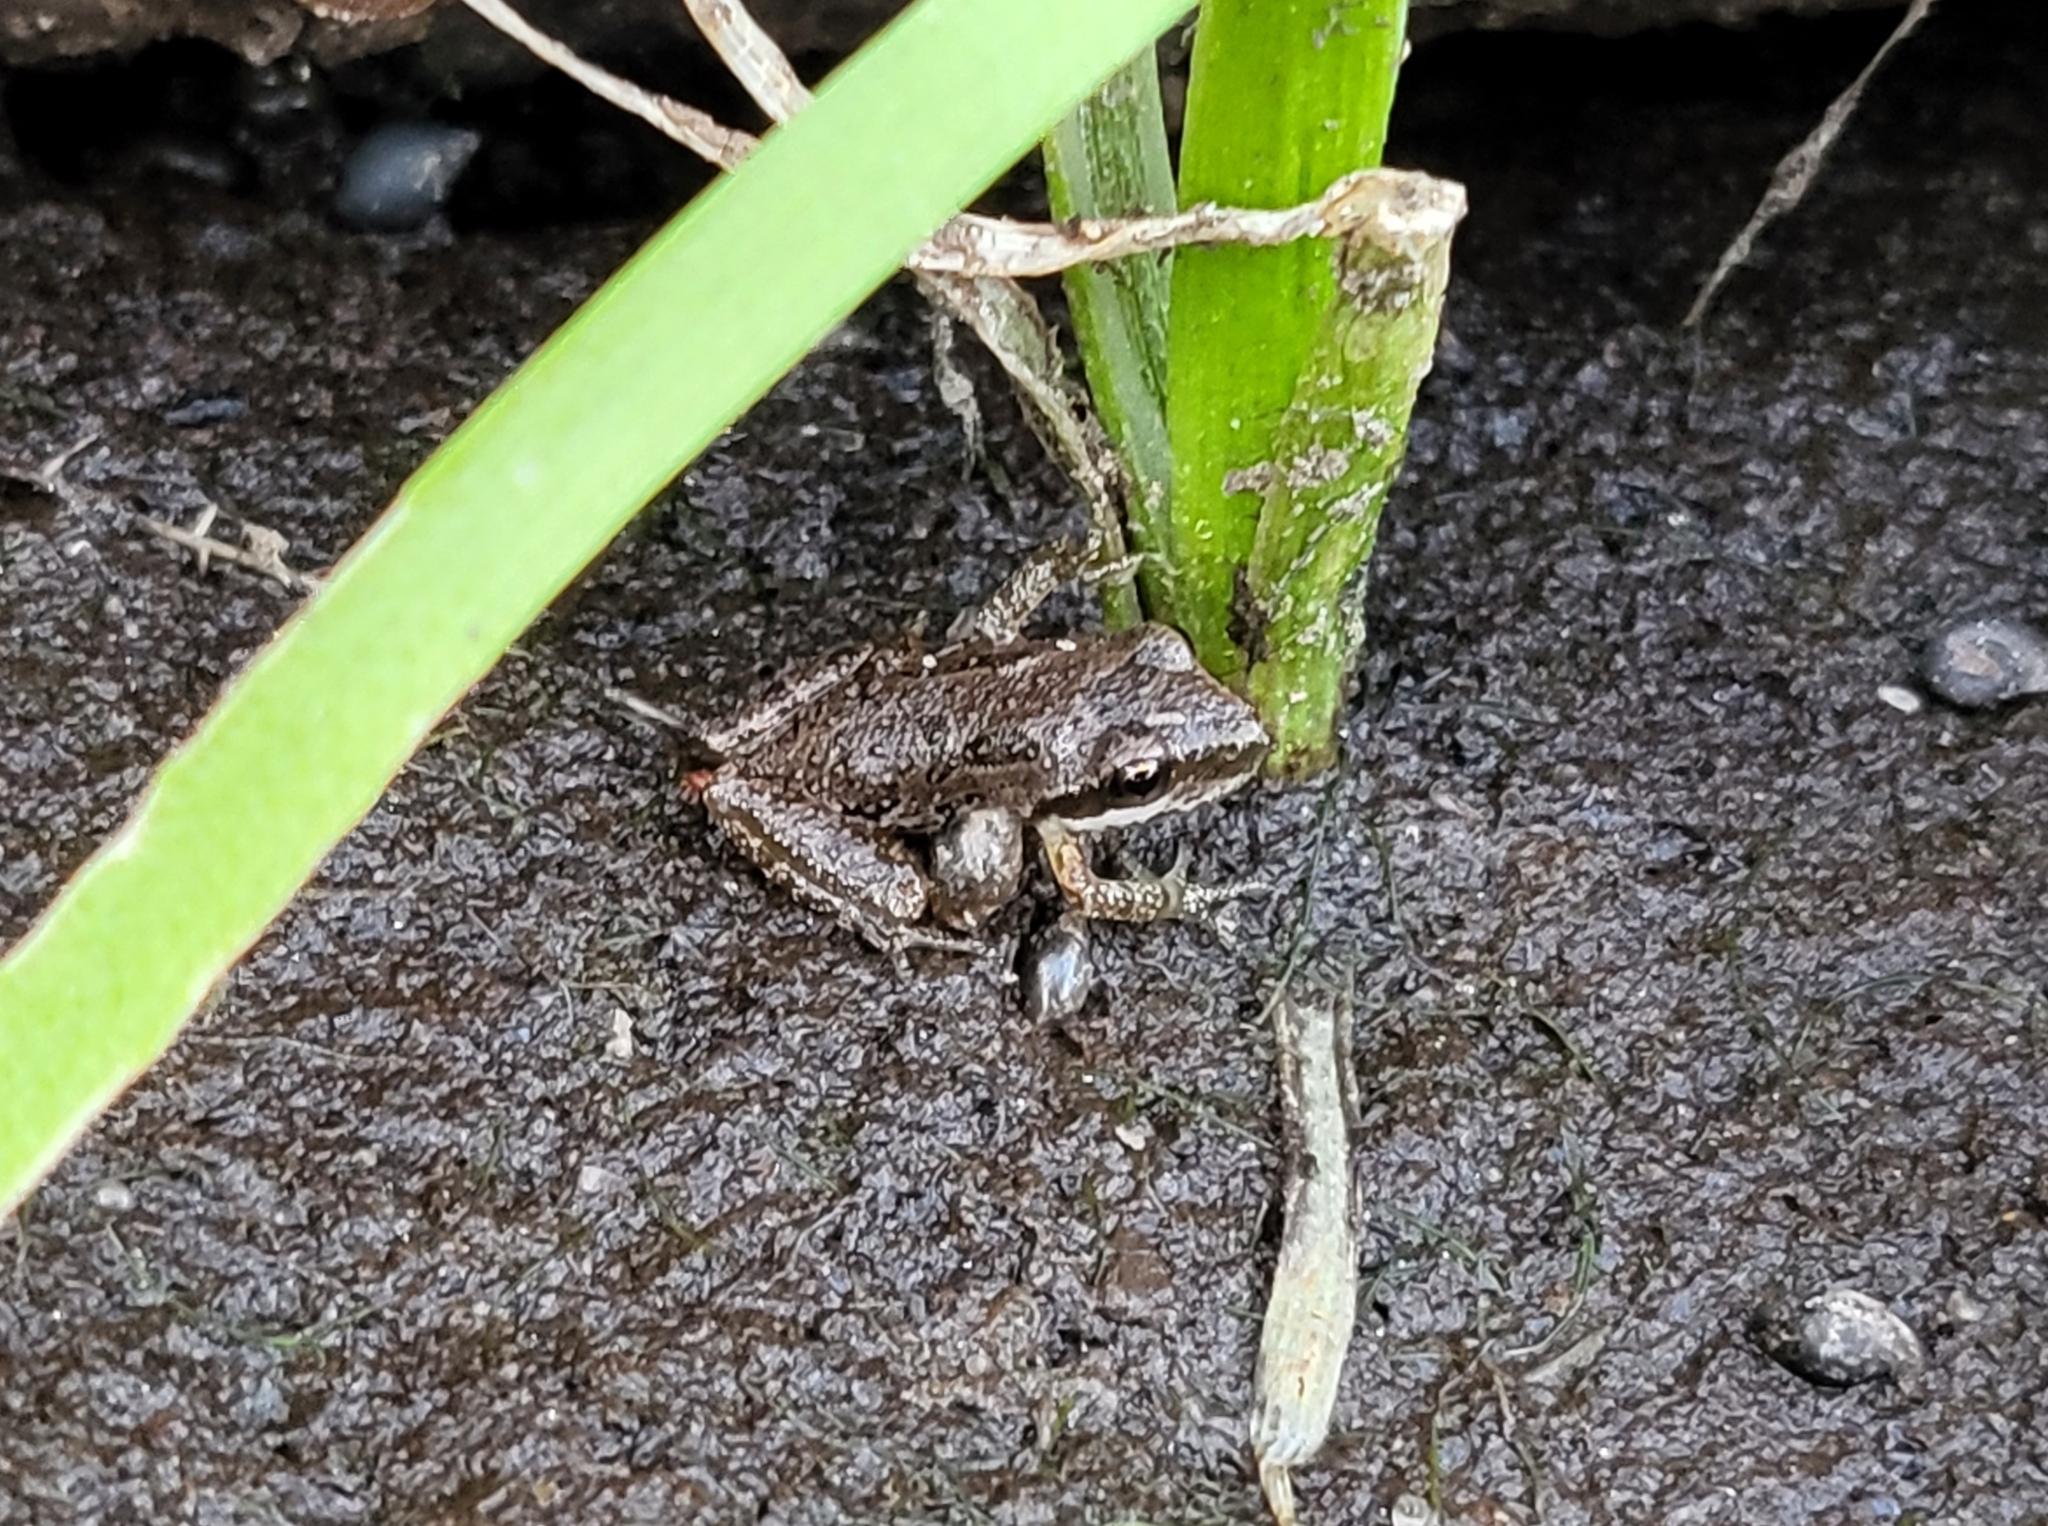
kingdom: Animalia
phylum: Chordata
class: Amphibia
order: Anura
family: Hylidae
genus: Pseudacris
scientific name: Pseudacris regilla
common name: Pacific chorus frog
